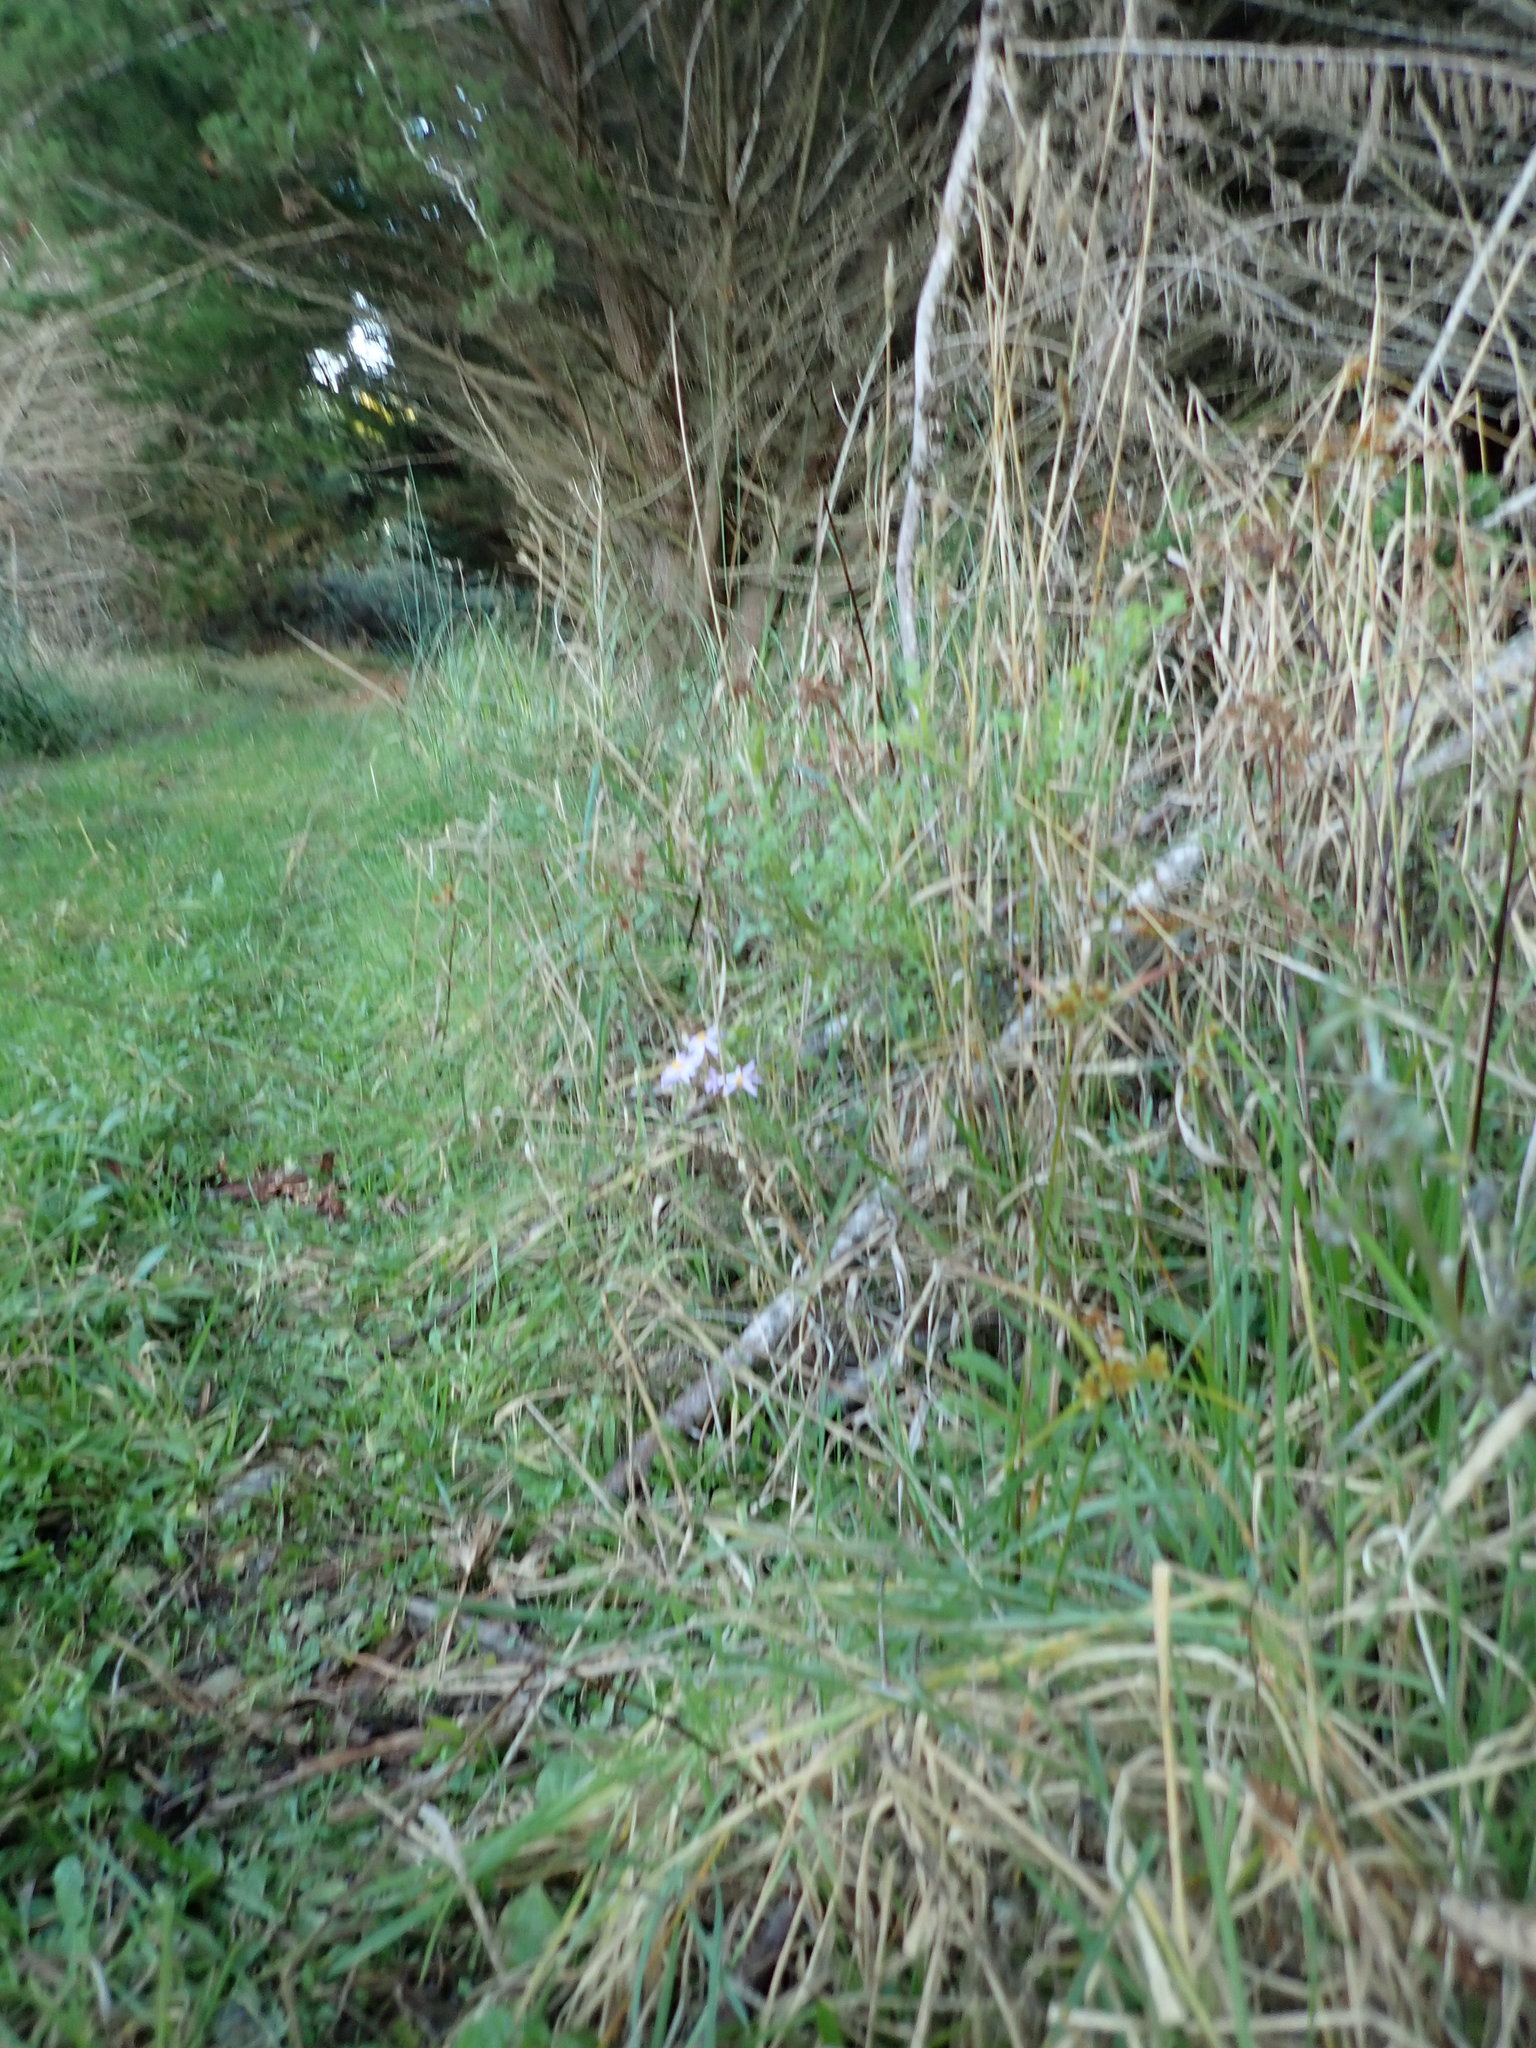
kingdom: Plantae
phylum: Tracheophyta
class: Magnoliopsida
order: Asterales
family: Asteraceae
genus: Senecio
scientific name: Senecio elegans
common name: Purple groundsel
